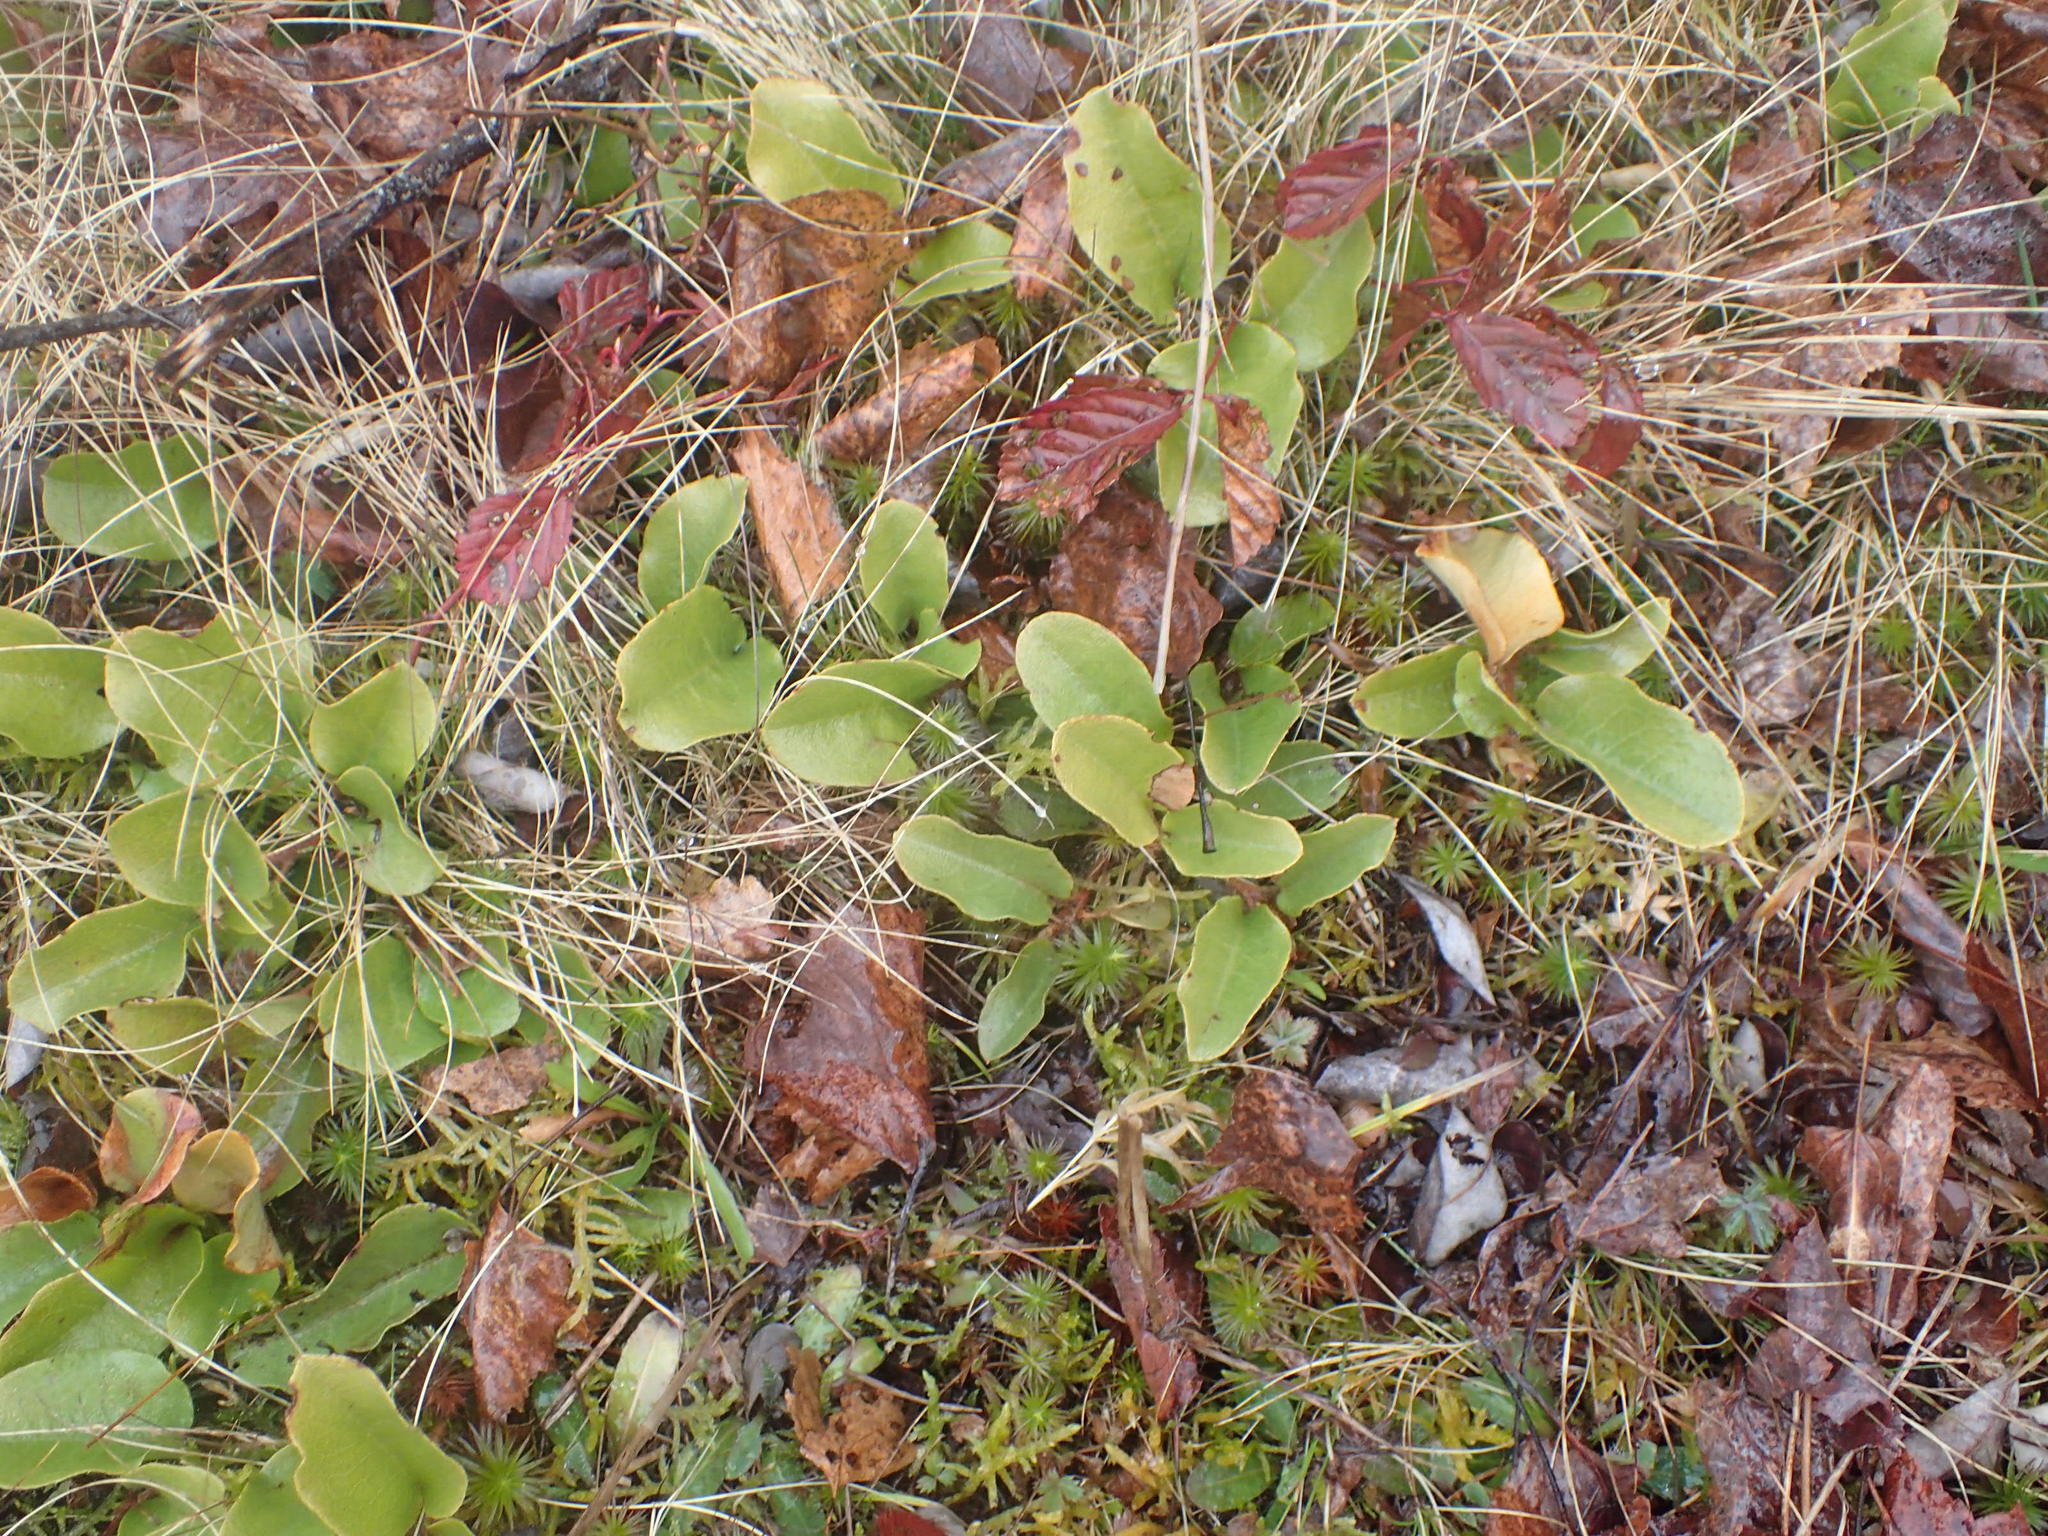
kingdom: Plantae
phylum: Tracheophyta
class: Magnoliopsida
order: Ericales
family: Ericaceae
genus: Epigaea
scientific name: Epigaea repens
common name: Gravelroot
